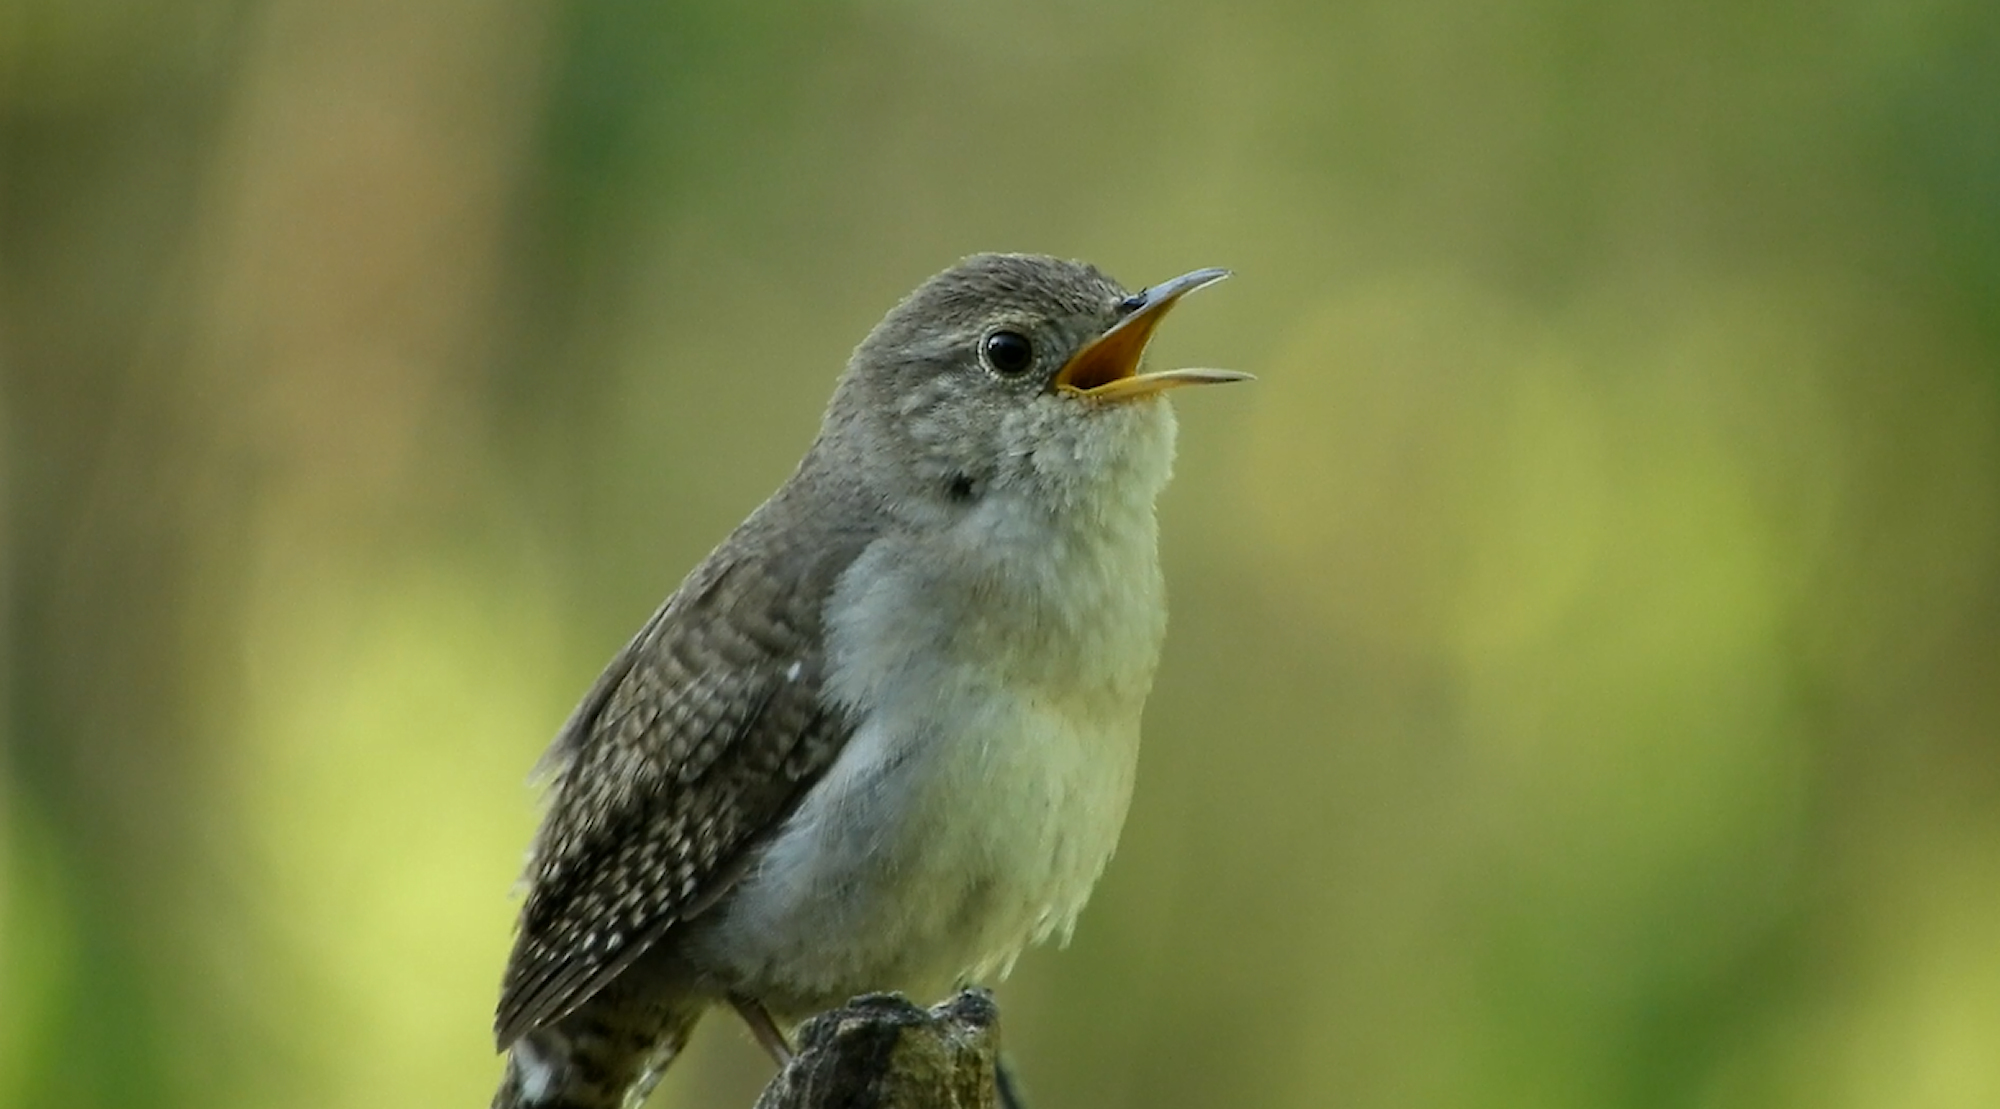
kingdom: Animalia
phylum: Chordata
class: Aves
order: Passeriformes
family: Troglodytidae
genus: Troglodytes
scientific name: Troglodytes aedon
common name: House wren
